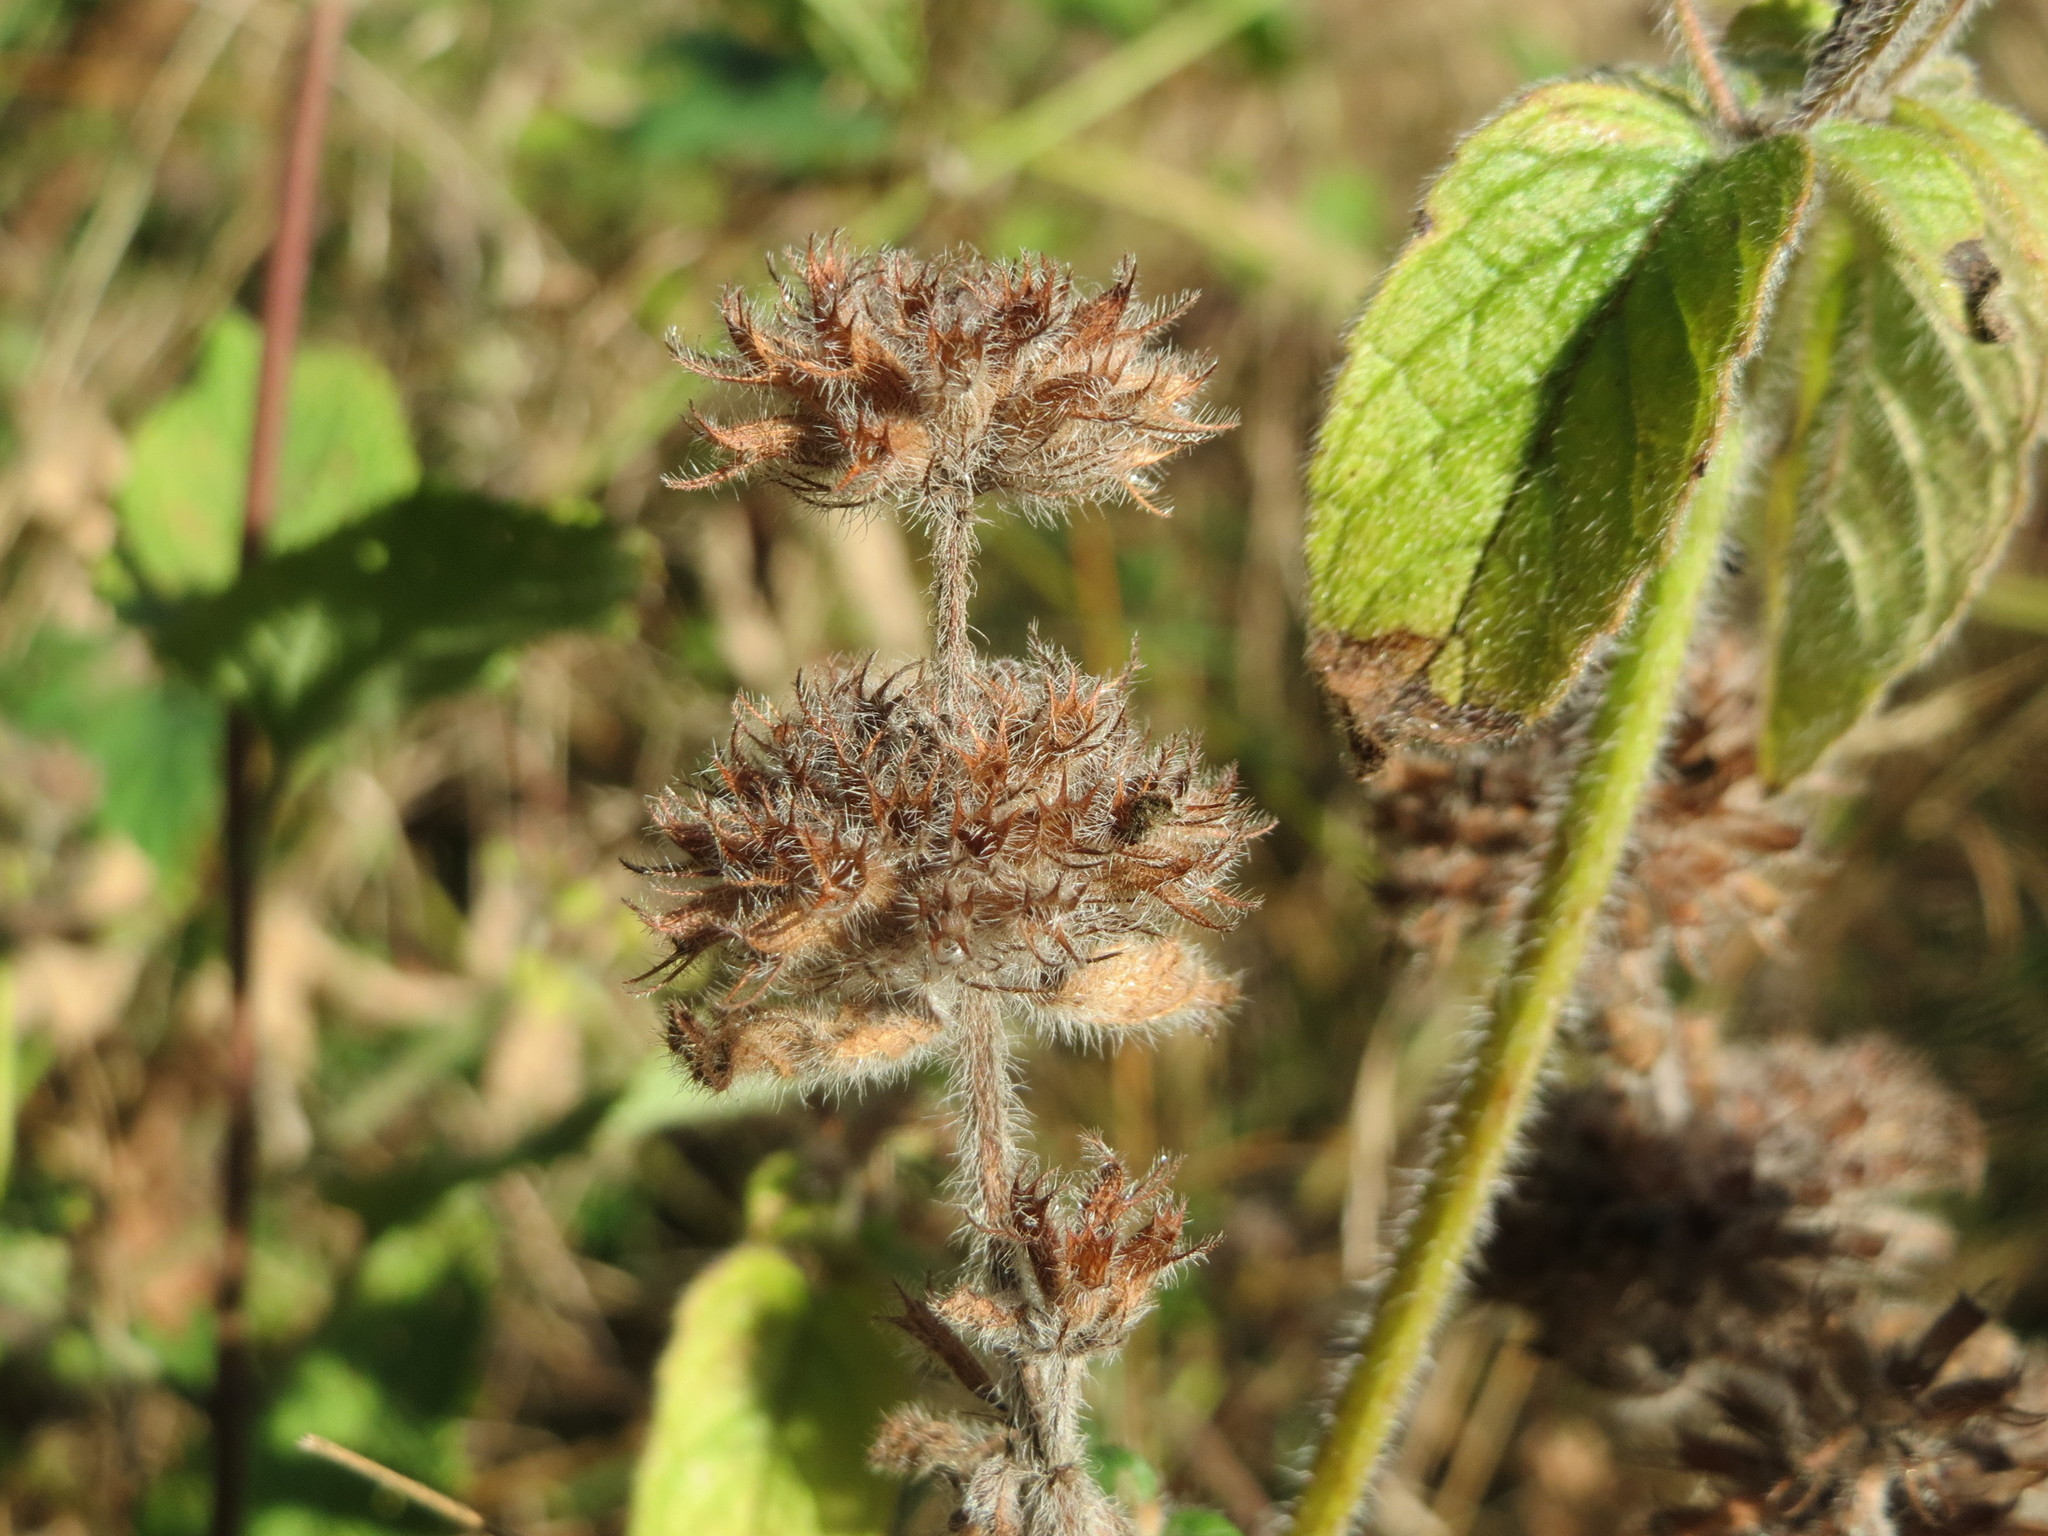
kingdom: Plantae
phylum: Tracheophyta
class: Magnoliopsida
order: Lamiales
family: Lamiaceae
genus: Clinopodium
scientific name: Clinopodium vulgare
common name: Wild basil
